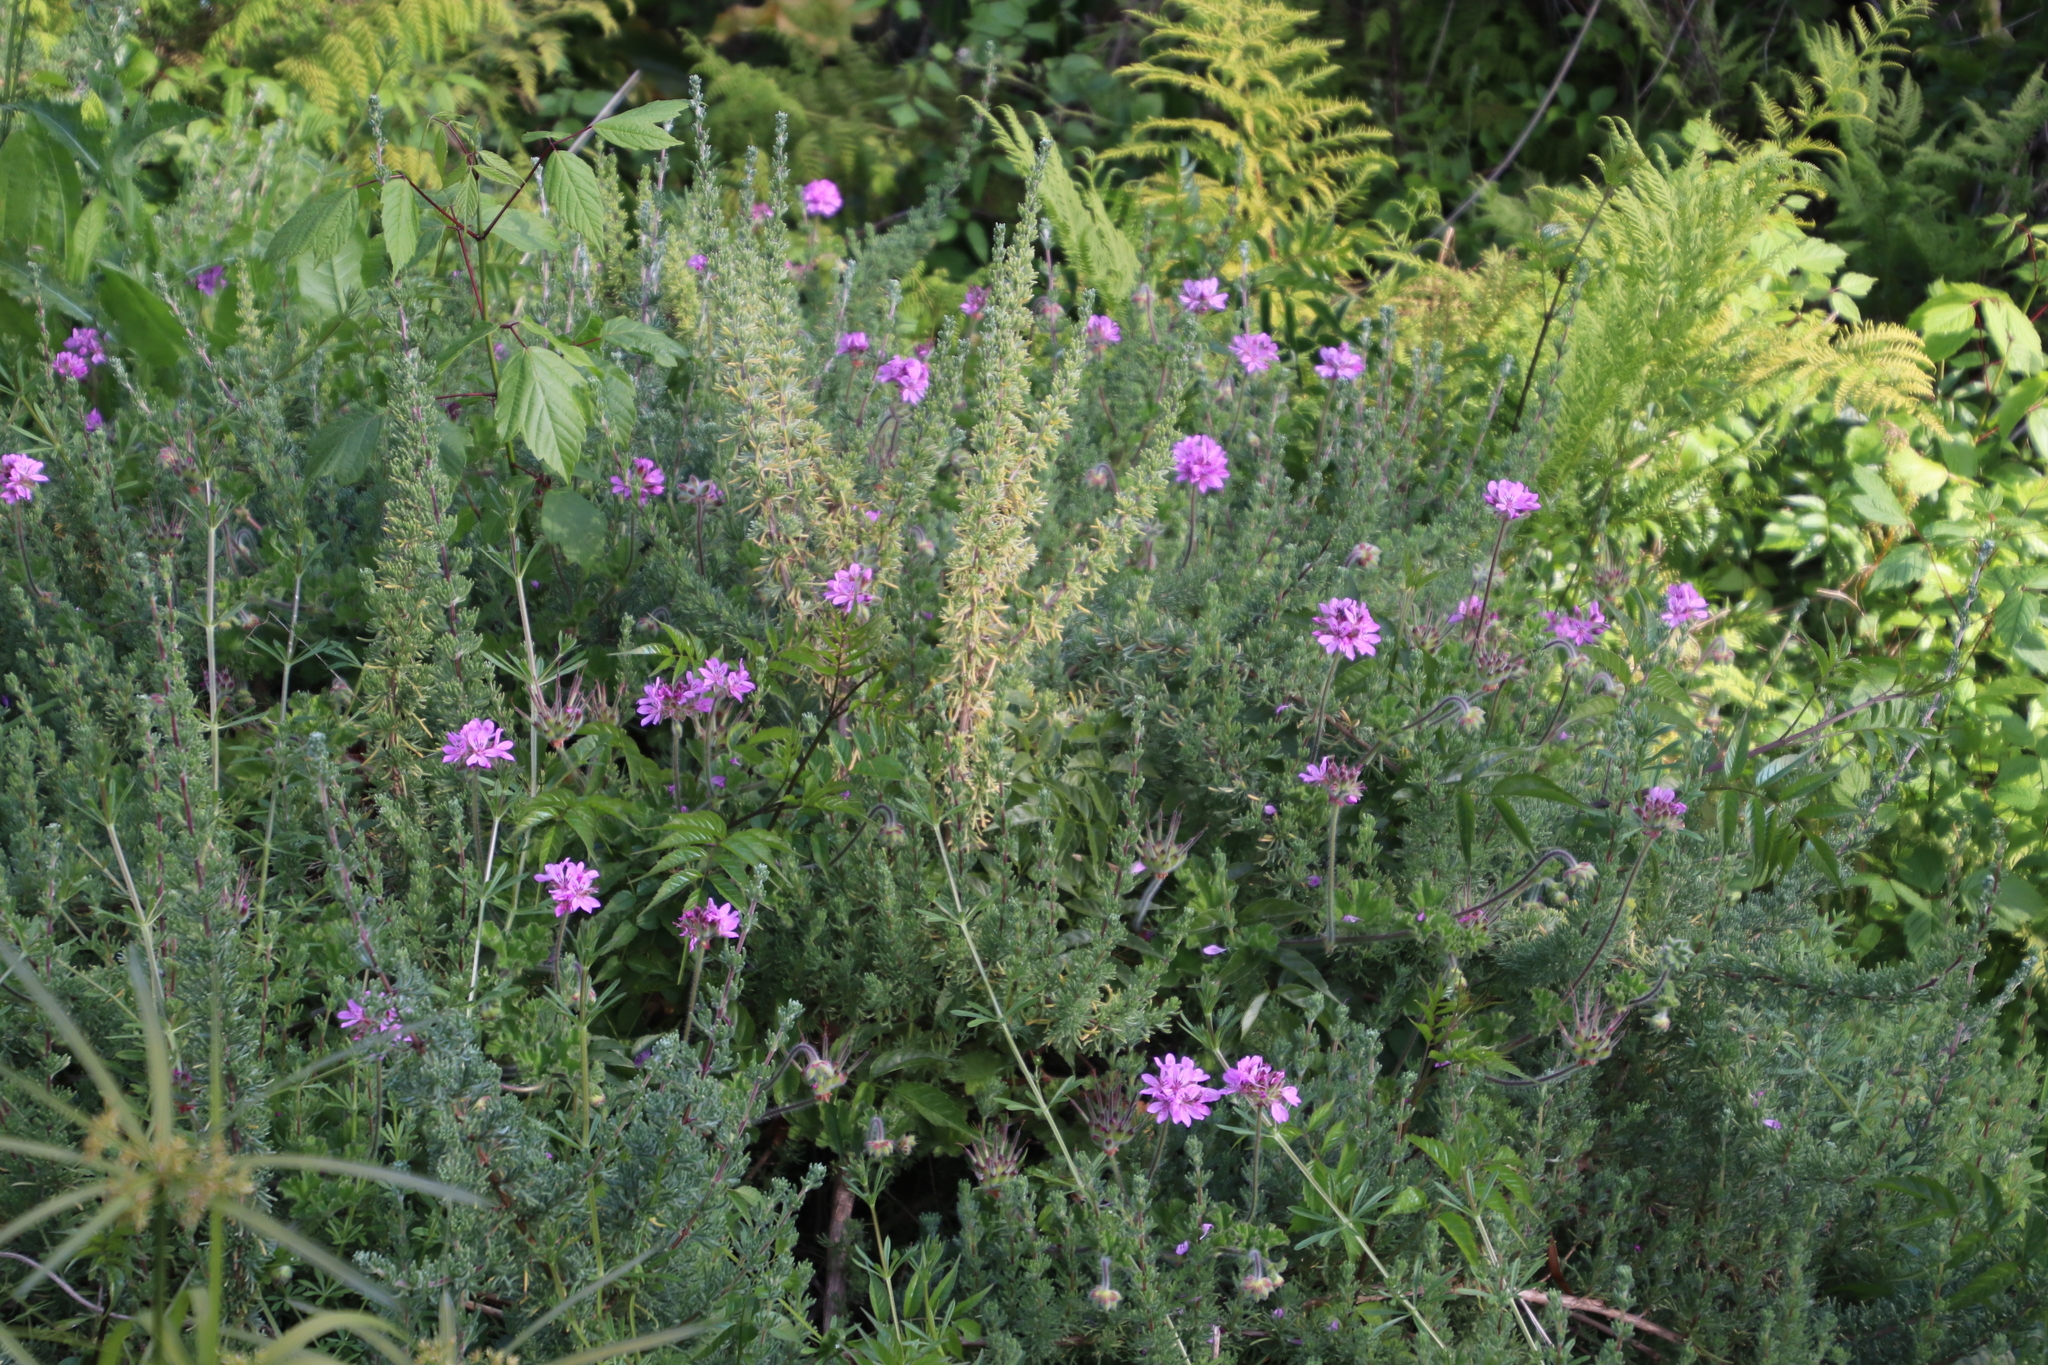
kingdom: Plantae
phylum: Tracheophyta
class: Magnoliopsida
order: Geraniales
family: Geraniaceae
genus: Pelargonium
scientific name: Pelargonium capitatum
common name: Rose scented geranium
